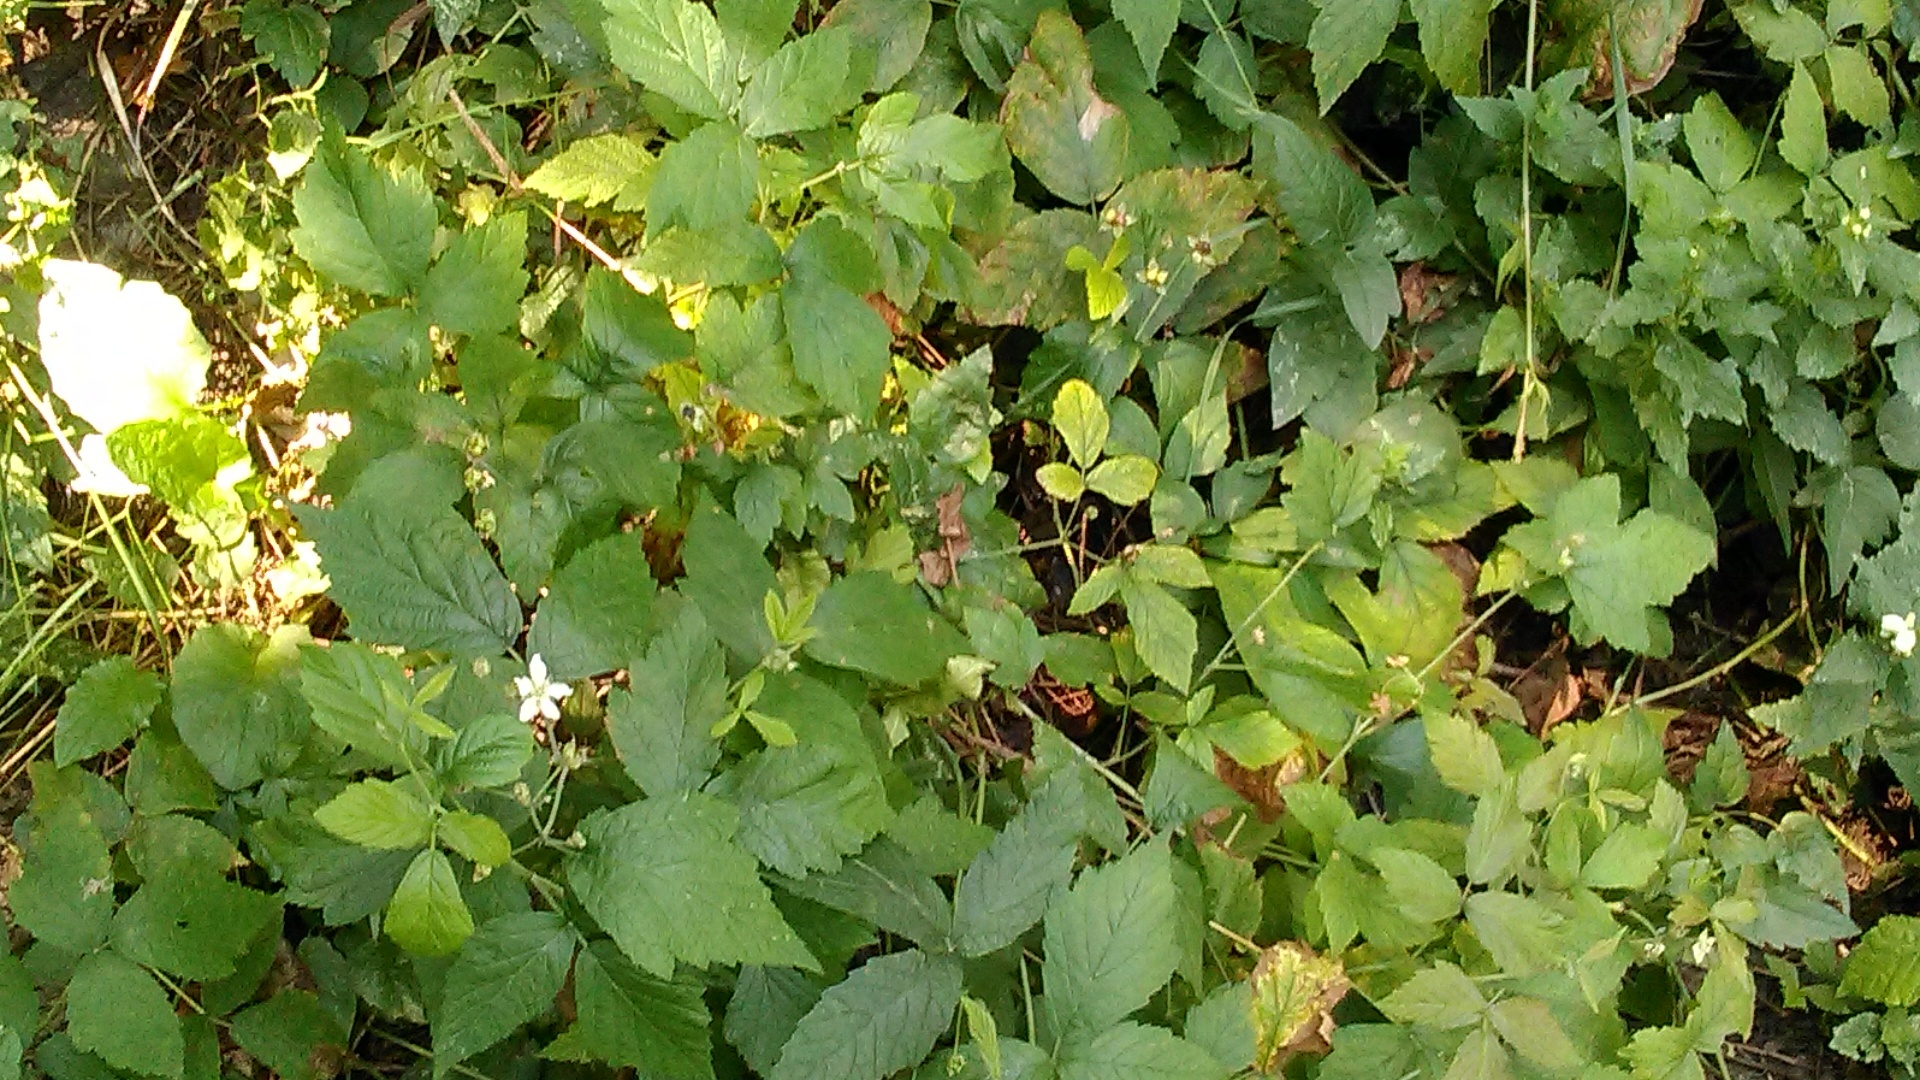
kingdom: Plantae
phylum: Tracheophyta
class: Magnoliopsida
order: Rosales
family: Rosaceae
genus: Rubus
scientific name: Rubus caesius
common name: Dewberry
